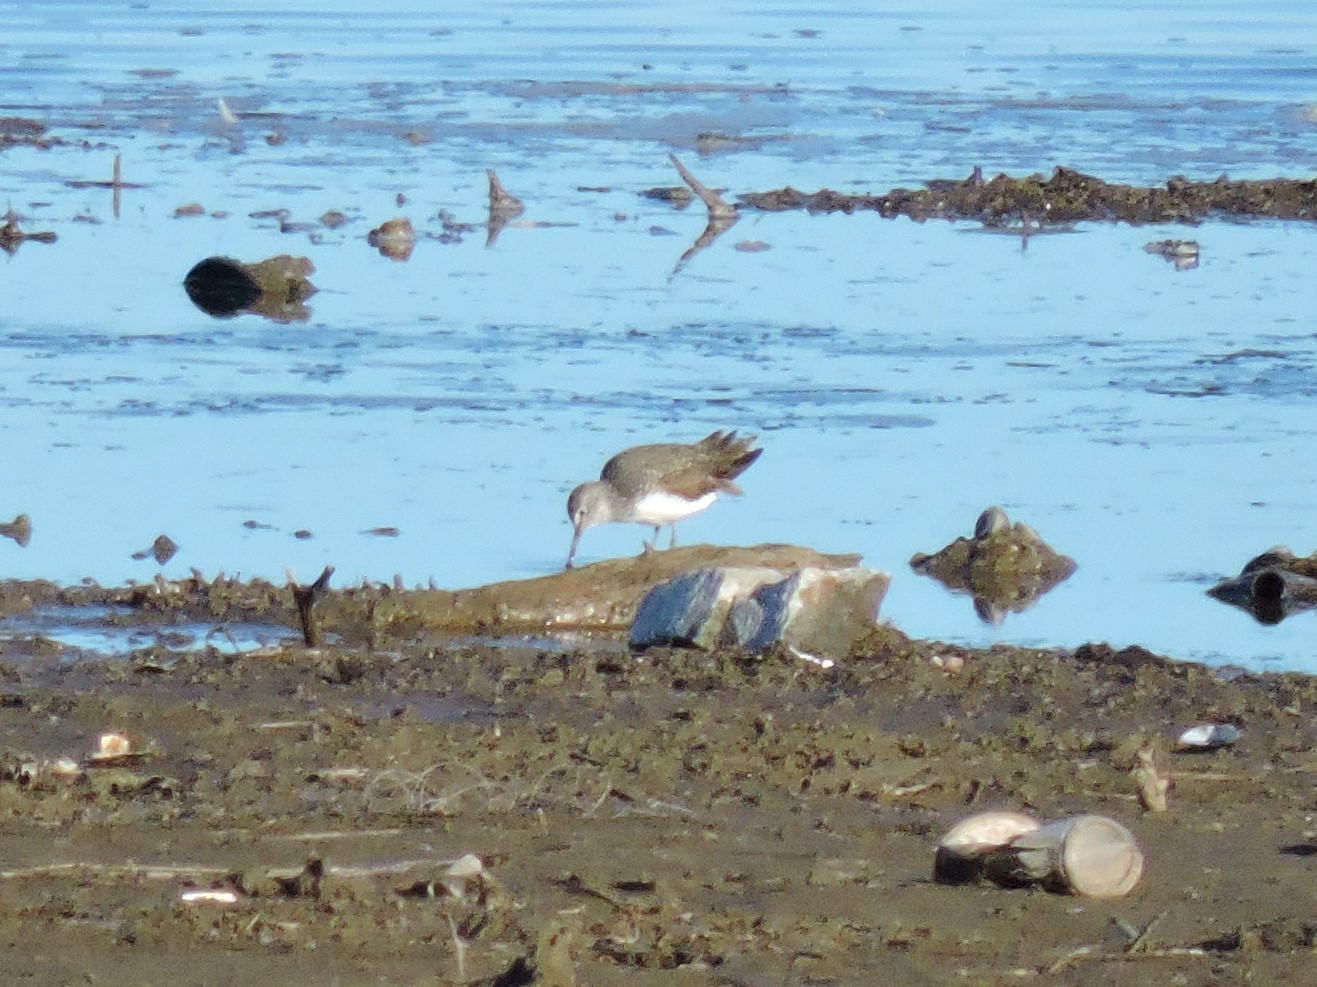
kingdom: Animalia
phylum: Chordata
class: Aves
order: Charadriiformes
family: Scolopacidae
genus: Tringa
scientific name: Tringa ochropus
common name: Green sandpiper
